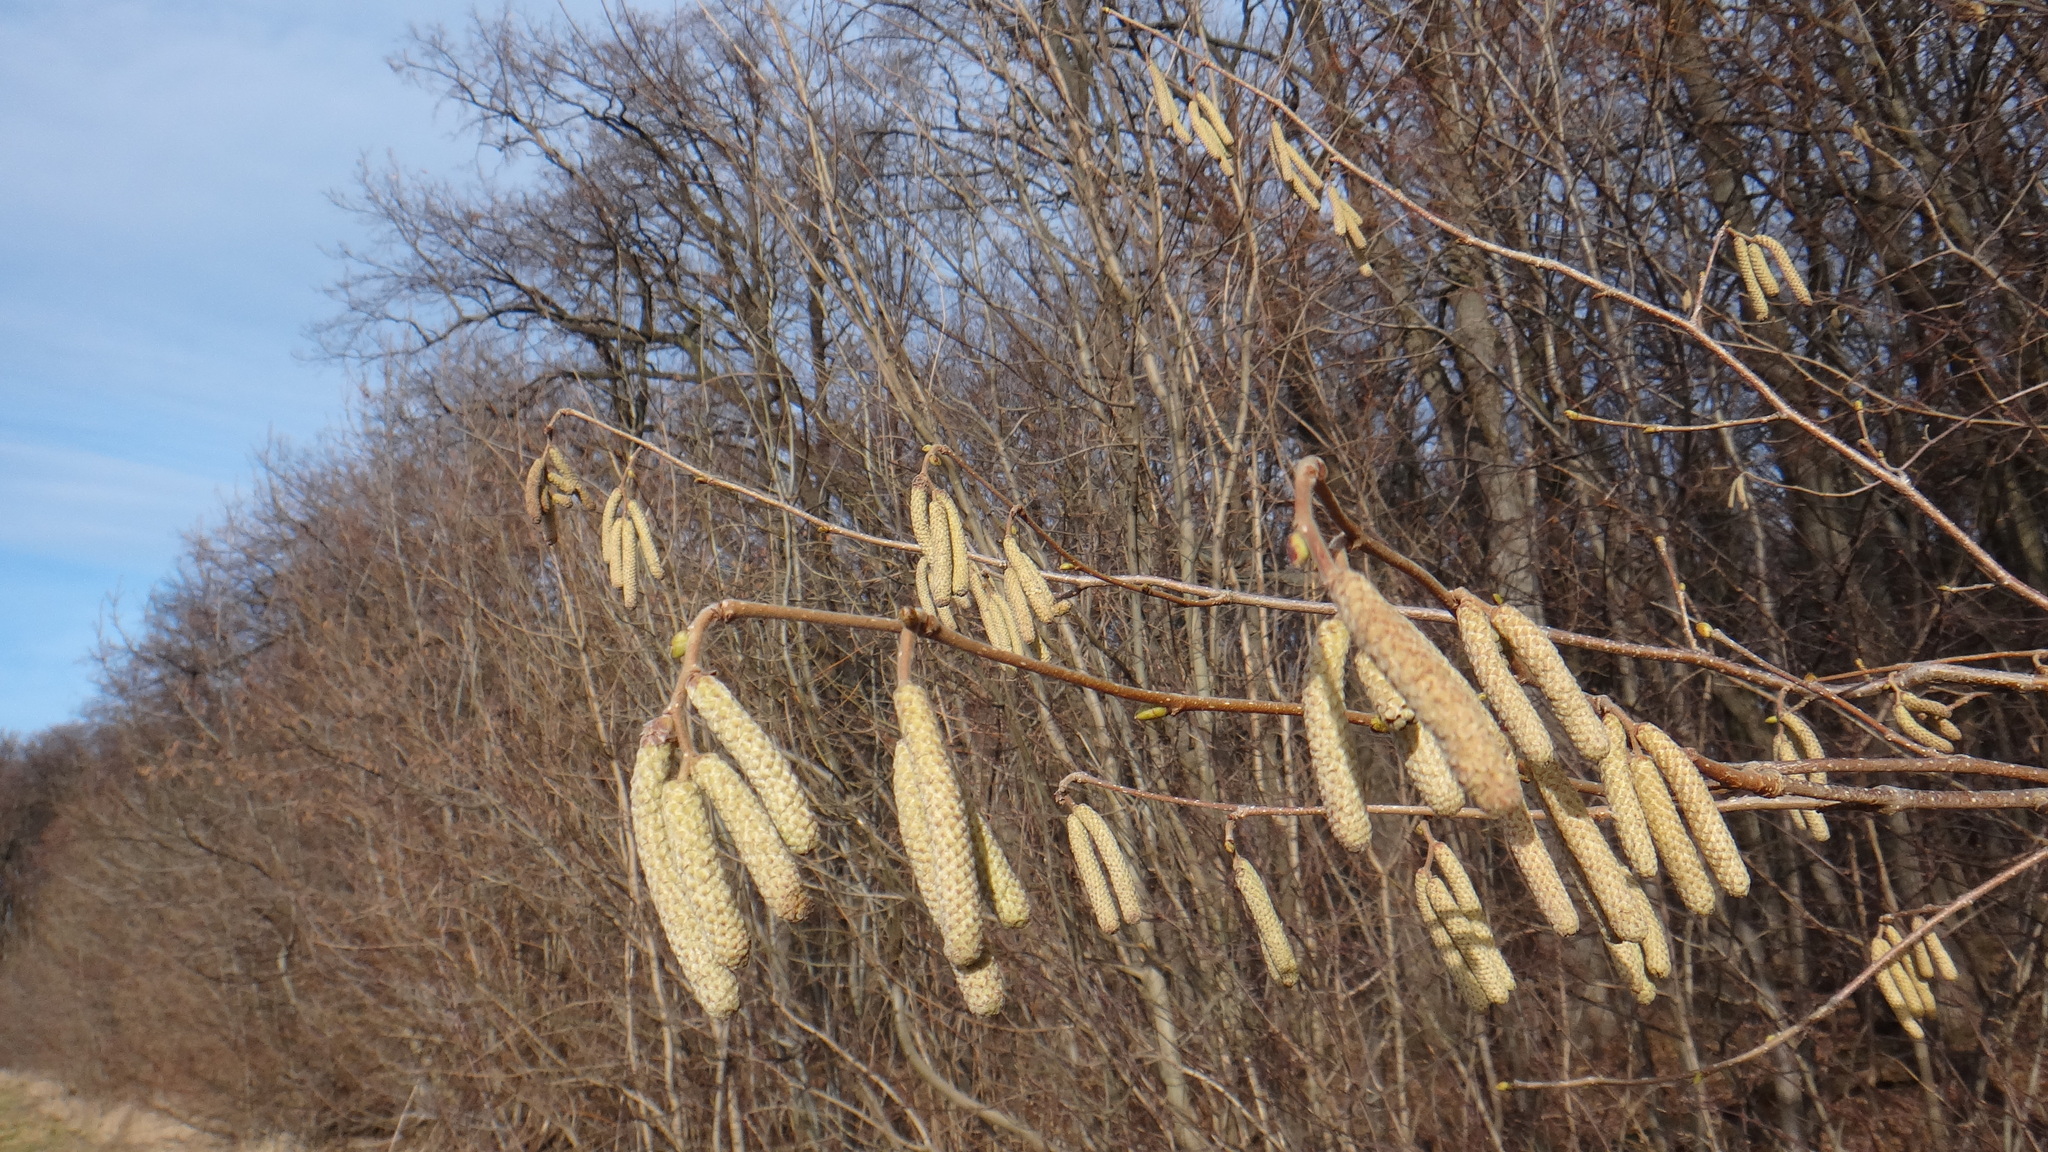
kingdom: Plantae
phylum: Tracheophyta
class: Magnoliopsida
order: Fagales
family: Betulaceae
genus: Corylus
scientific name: Corylus avellana
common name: European hazel
